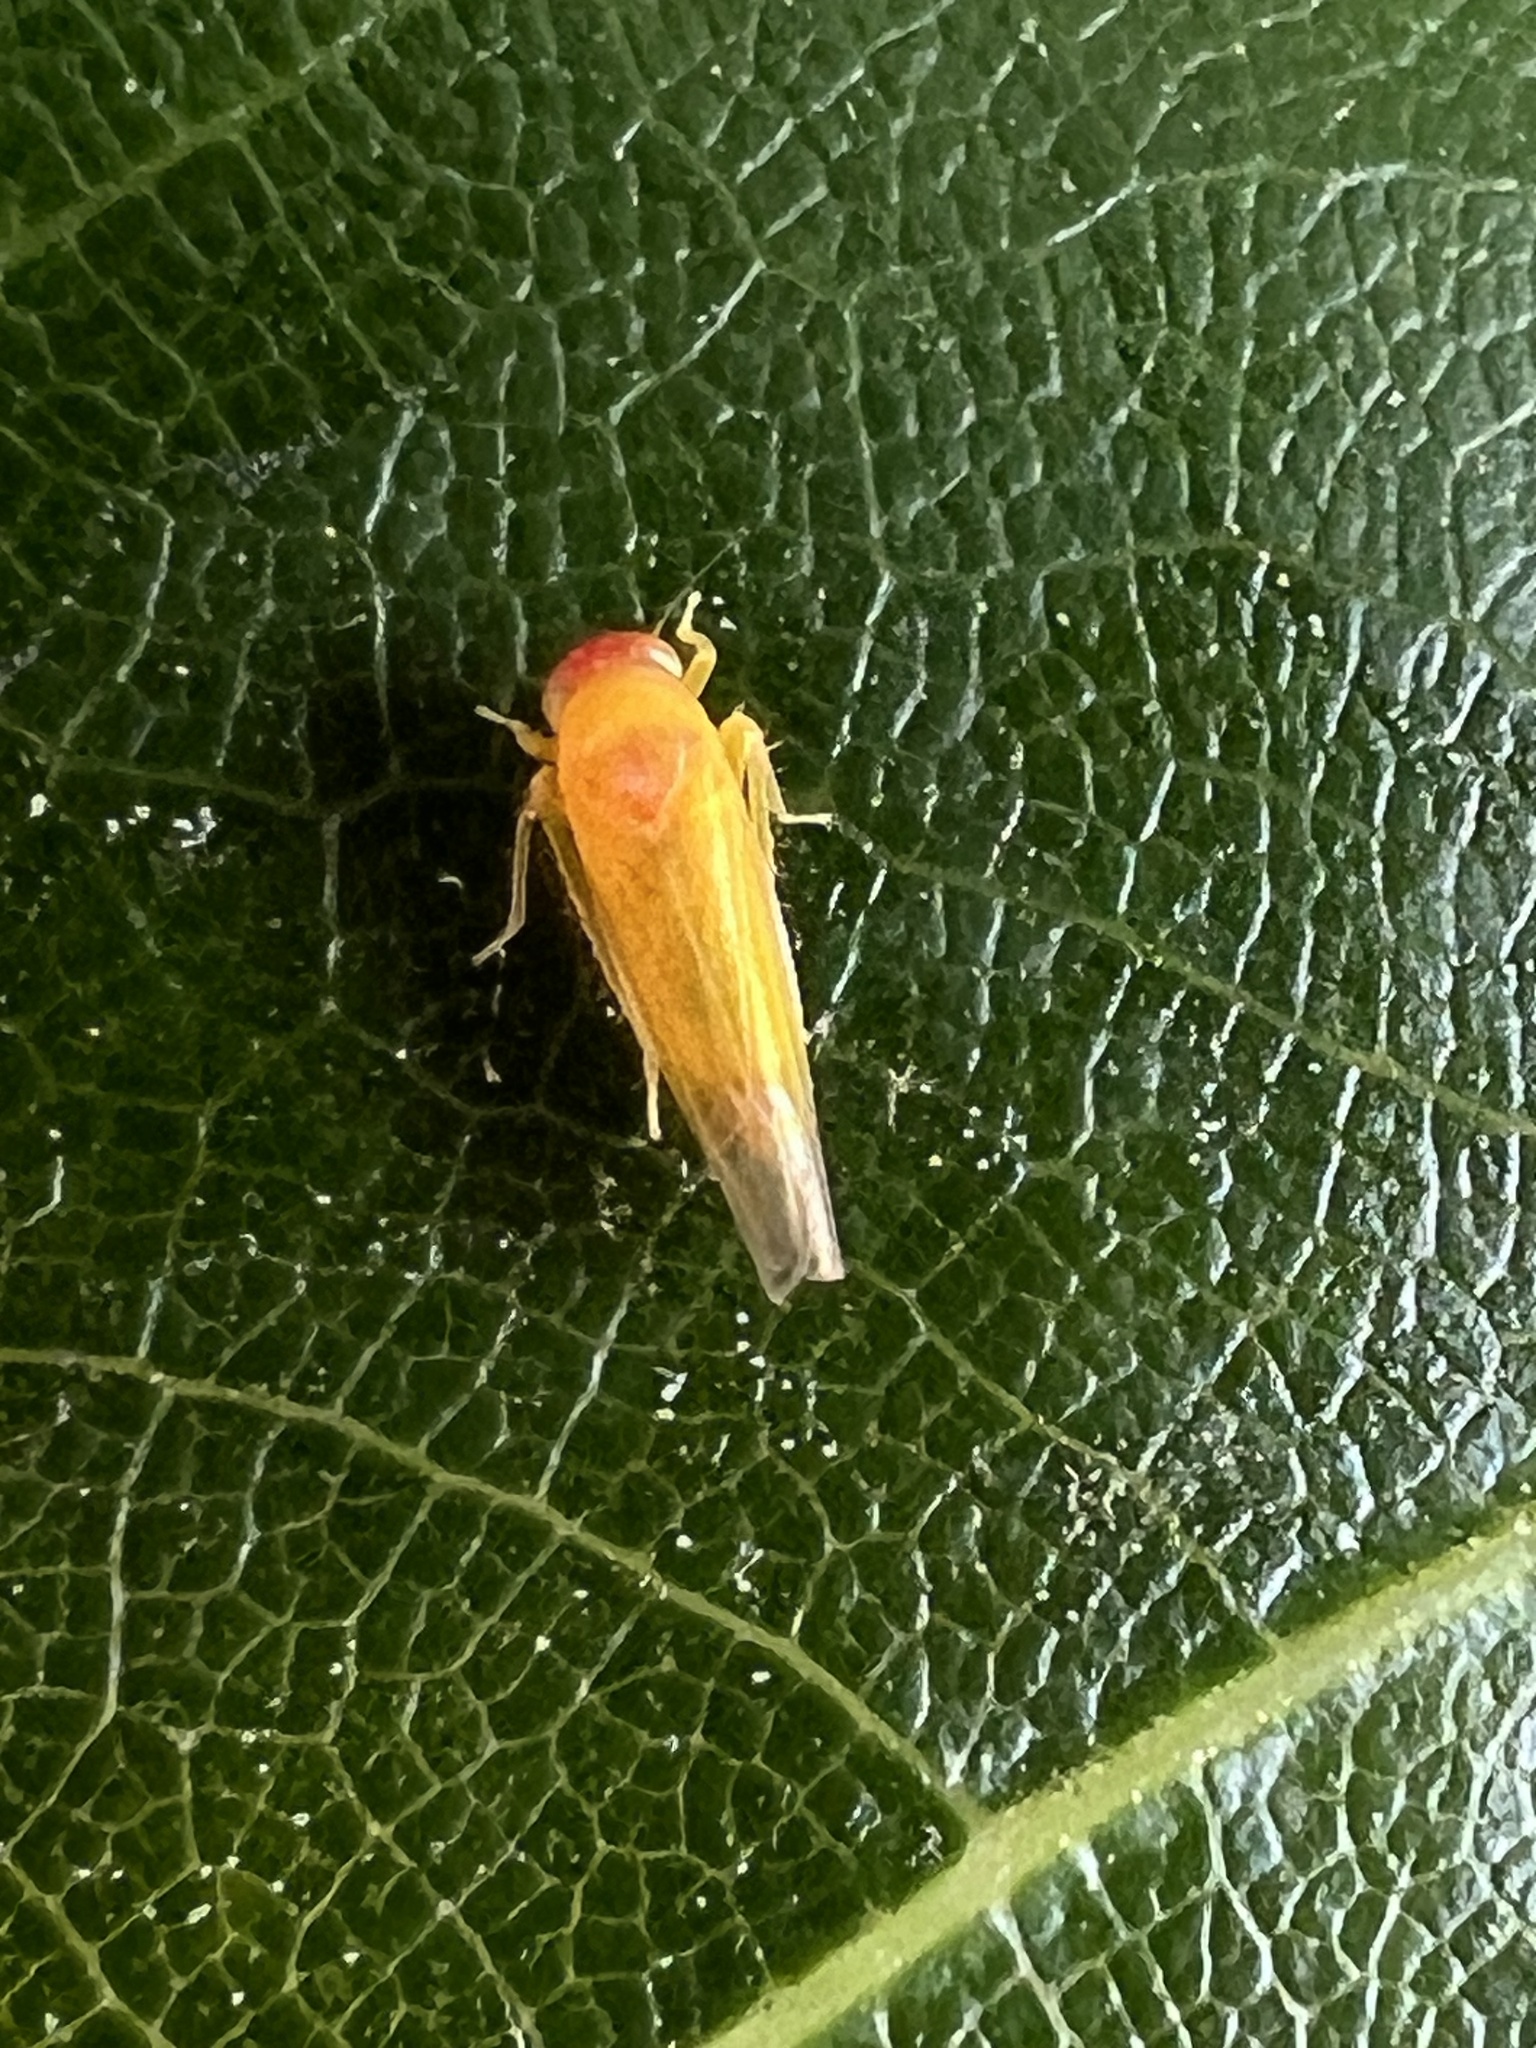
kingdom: Animalia
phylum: Arthropoda
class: Insecta
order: Hemiptera
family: Cicadellidae
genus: Alebra
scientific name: Alebra rubrafrons
